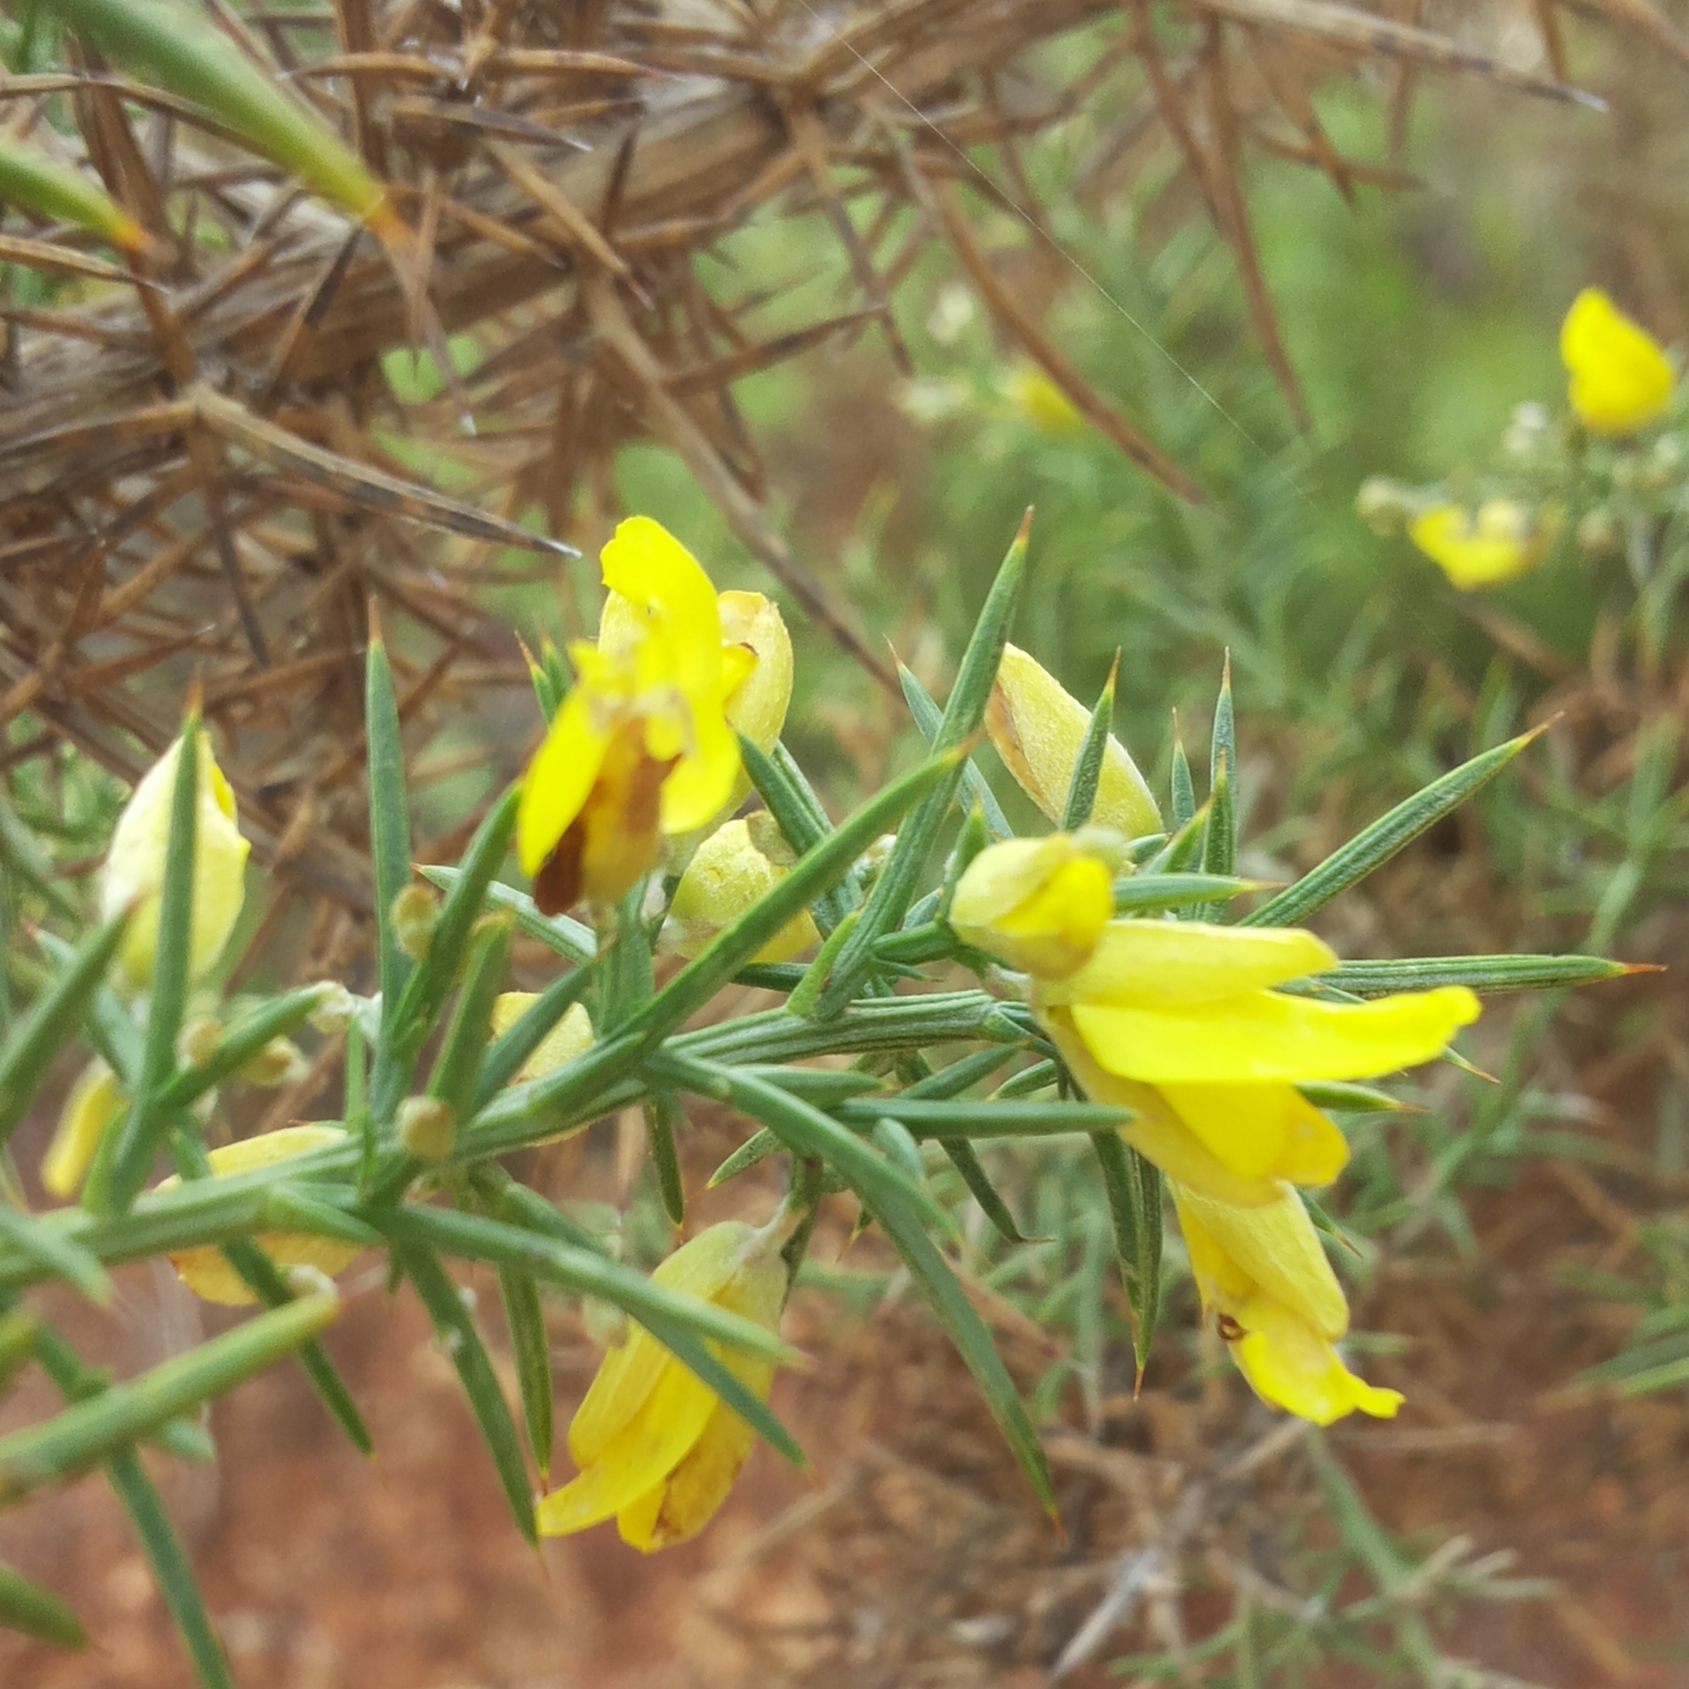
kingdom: Plantae
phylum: Tracheophyta
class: Magnoliopsida
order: Fabales
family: Fabaceae
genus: Ulex
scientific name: Ulex parviflorus
